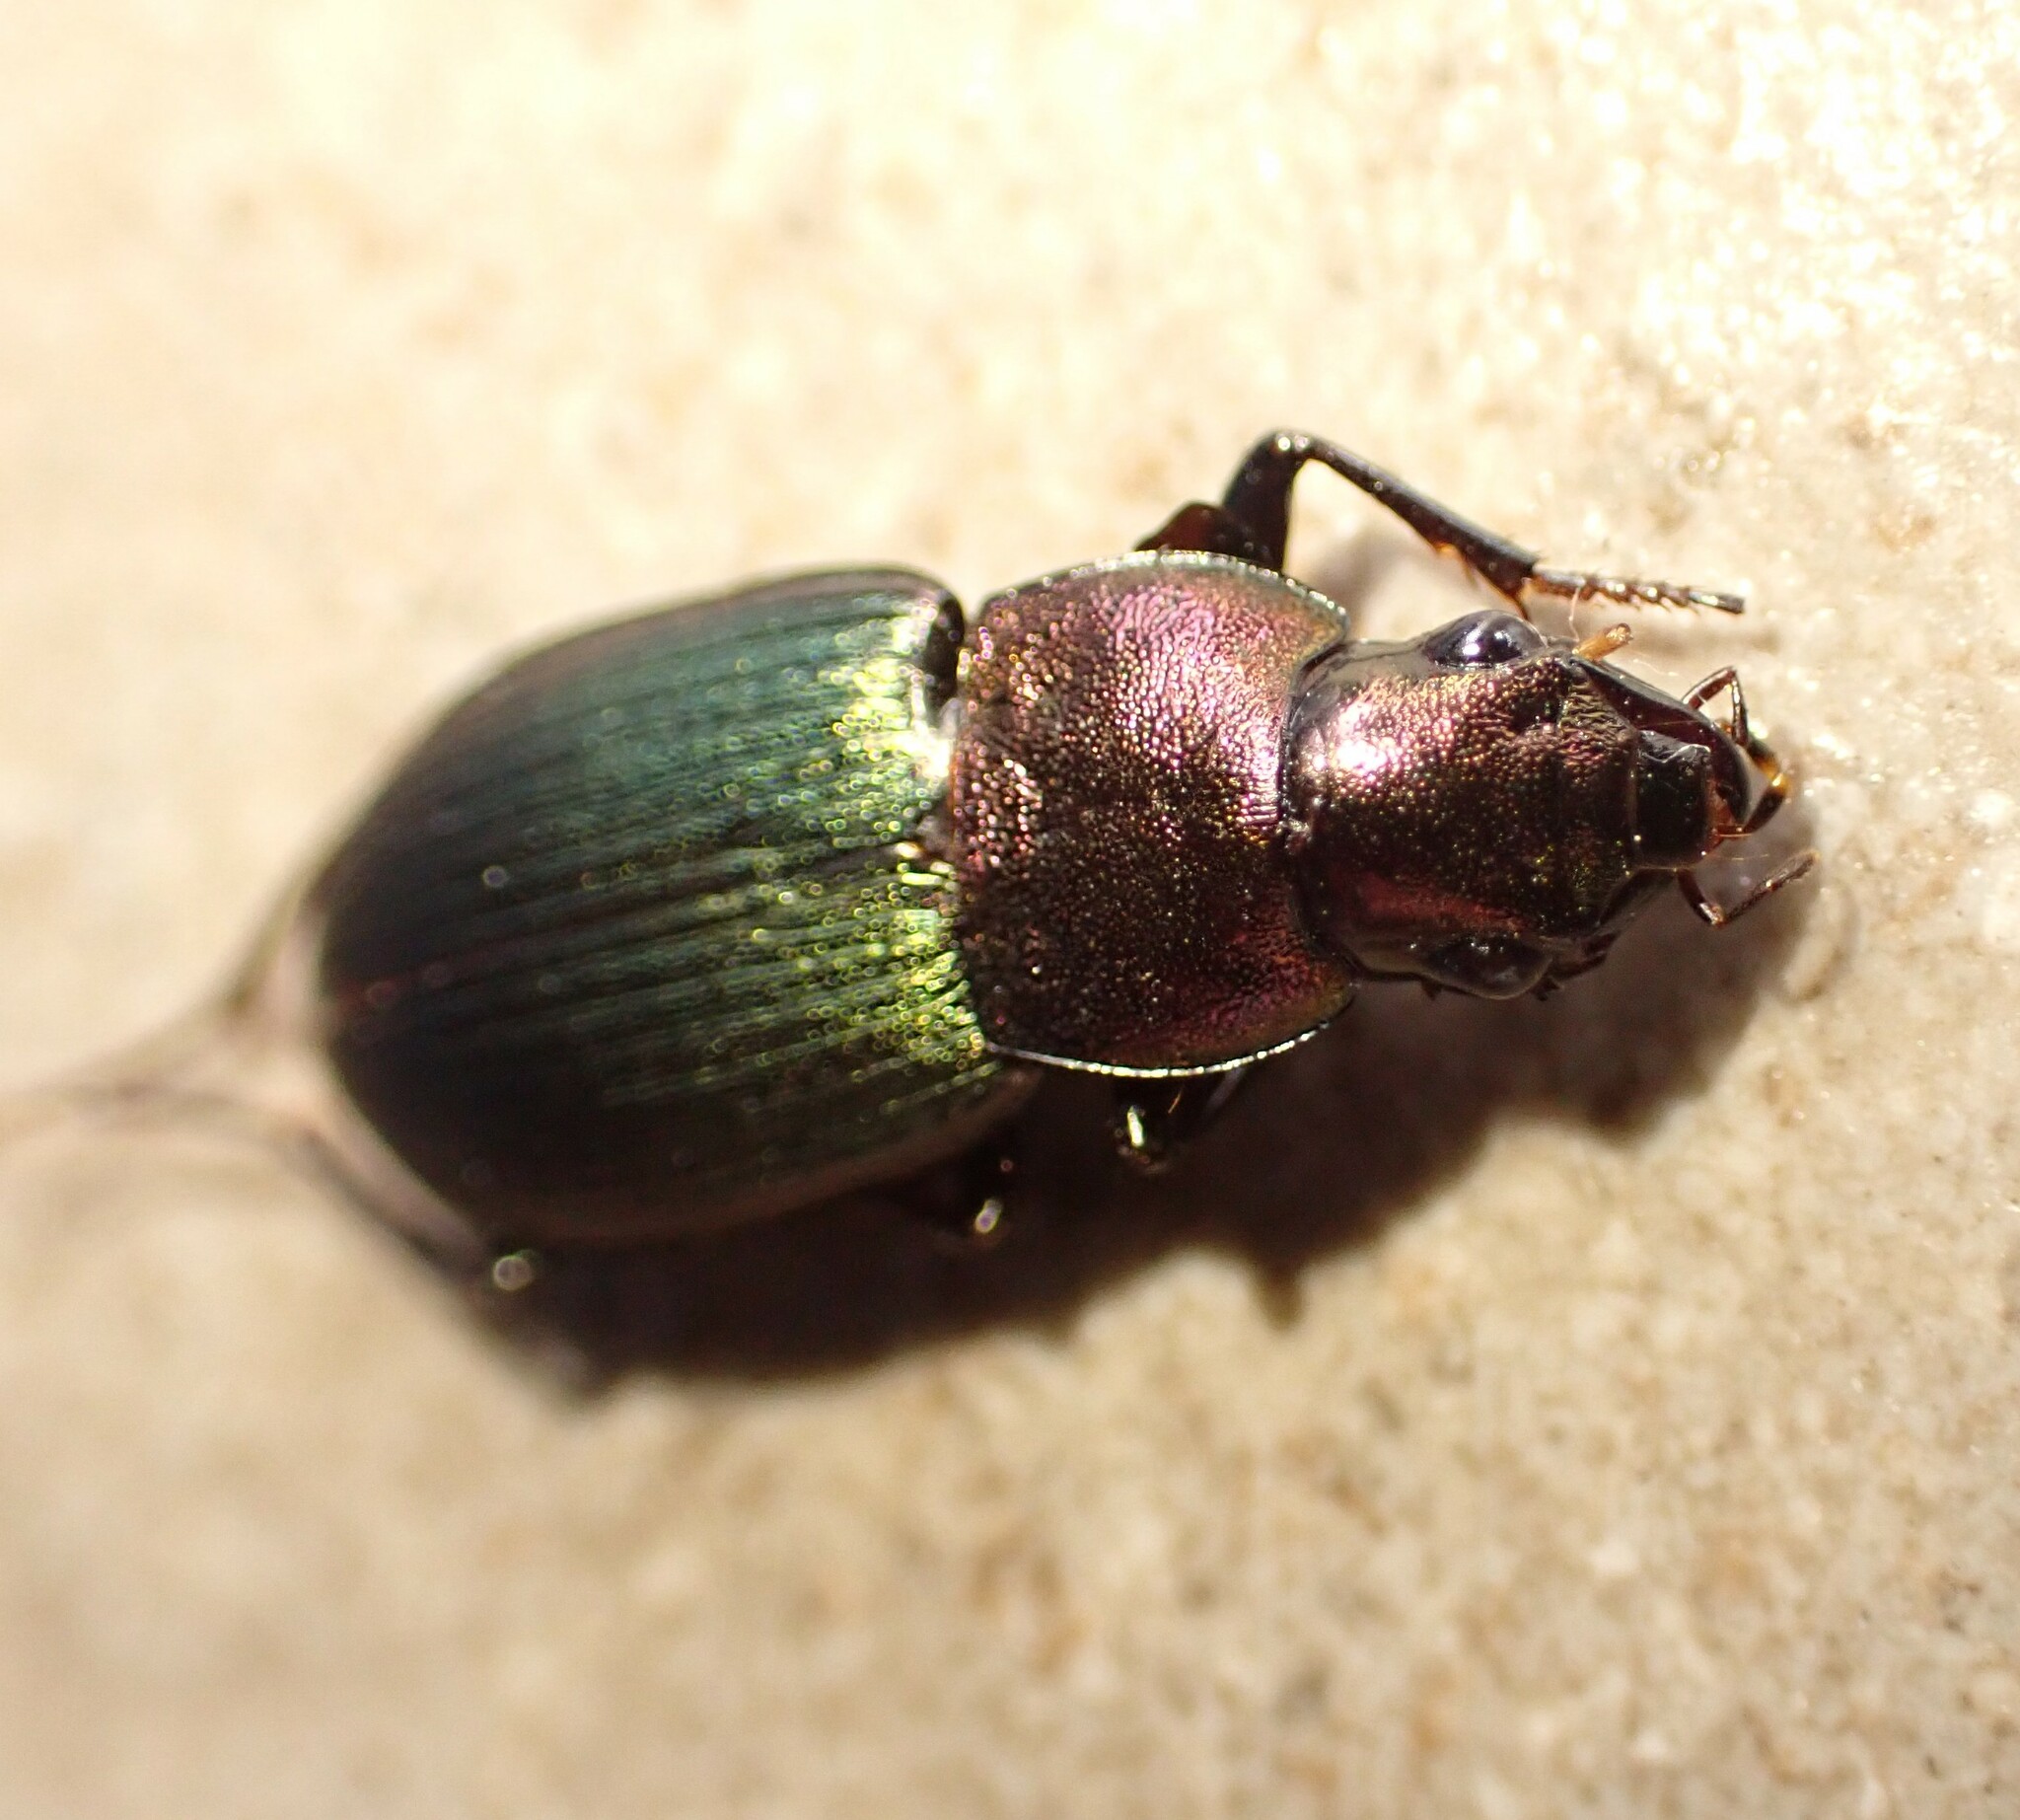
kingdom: Animalia
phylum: Arthropoda
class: Insecta
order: Coleoptera
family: Carabidae
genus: Neoaulacoryssus
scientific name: Neoaulacoryssus speciosus
